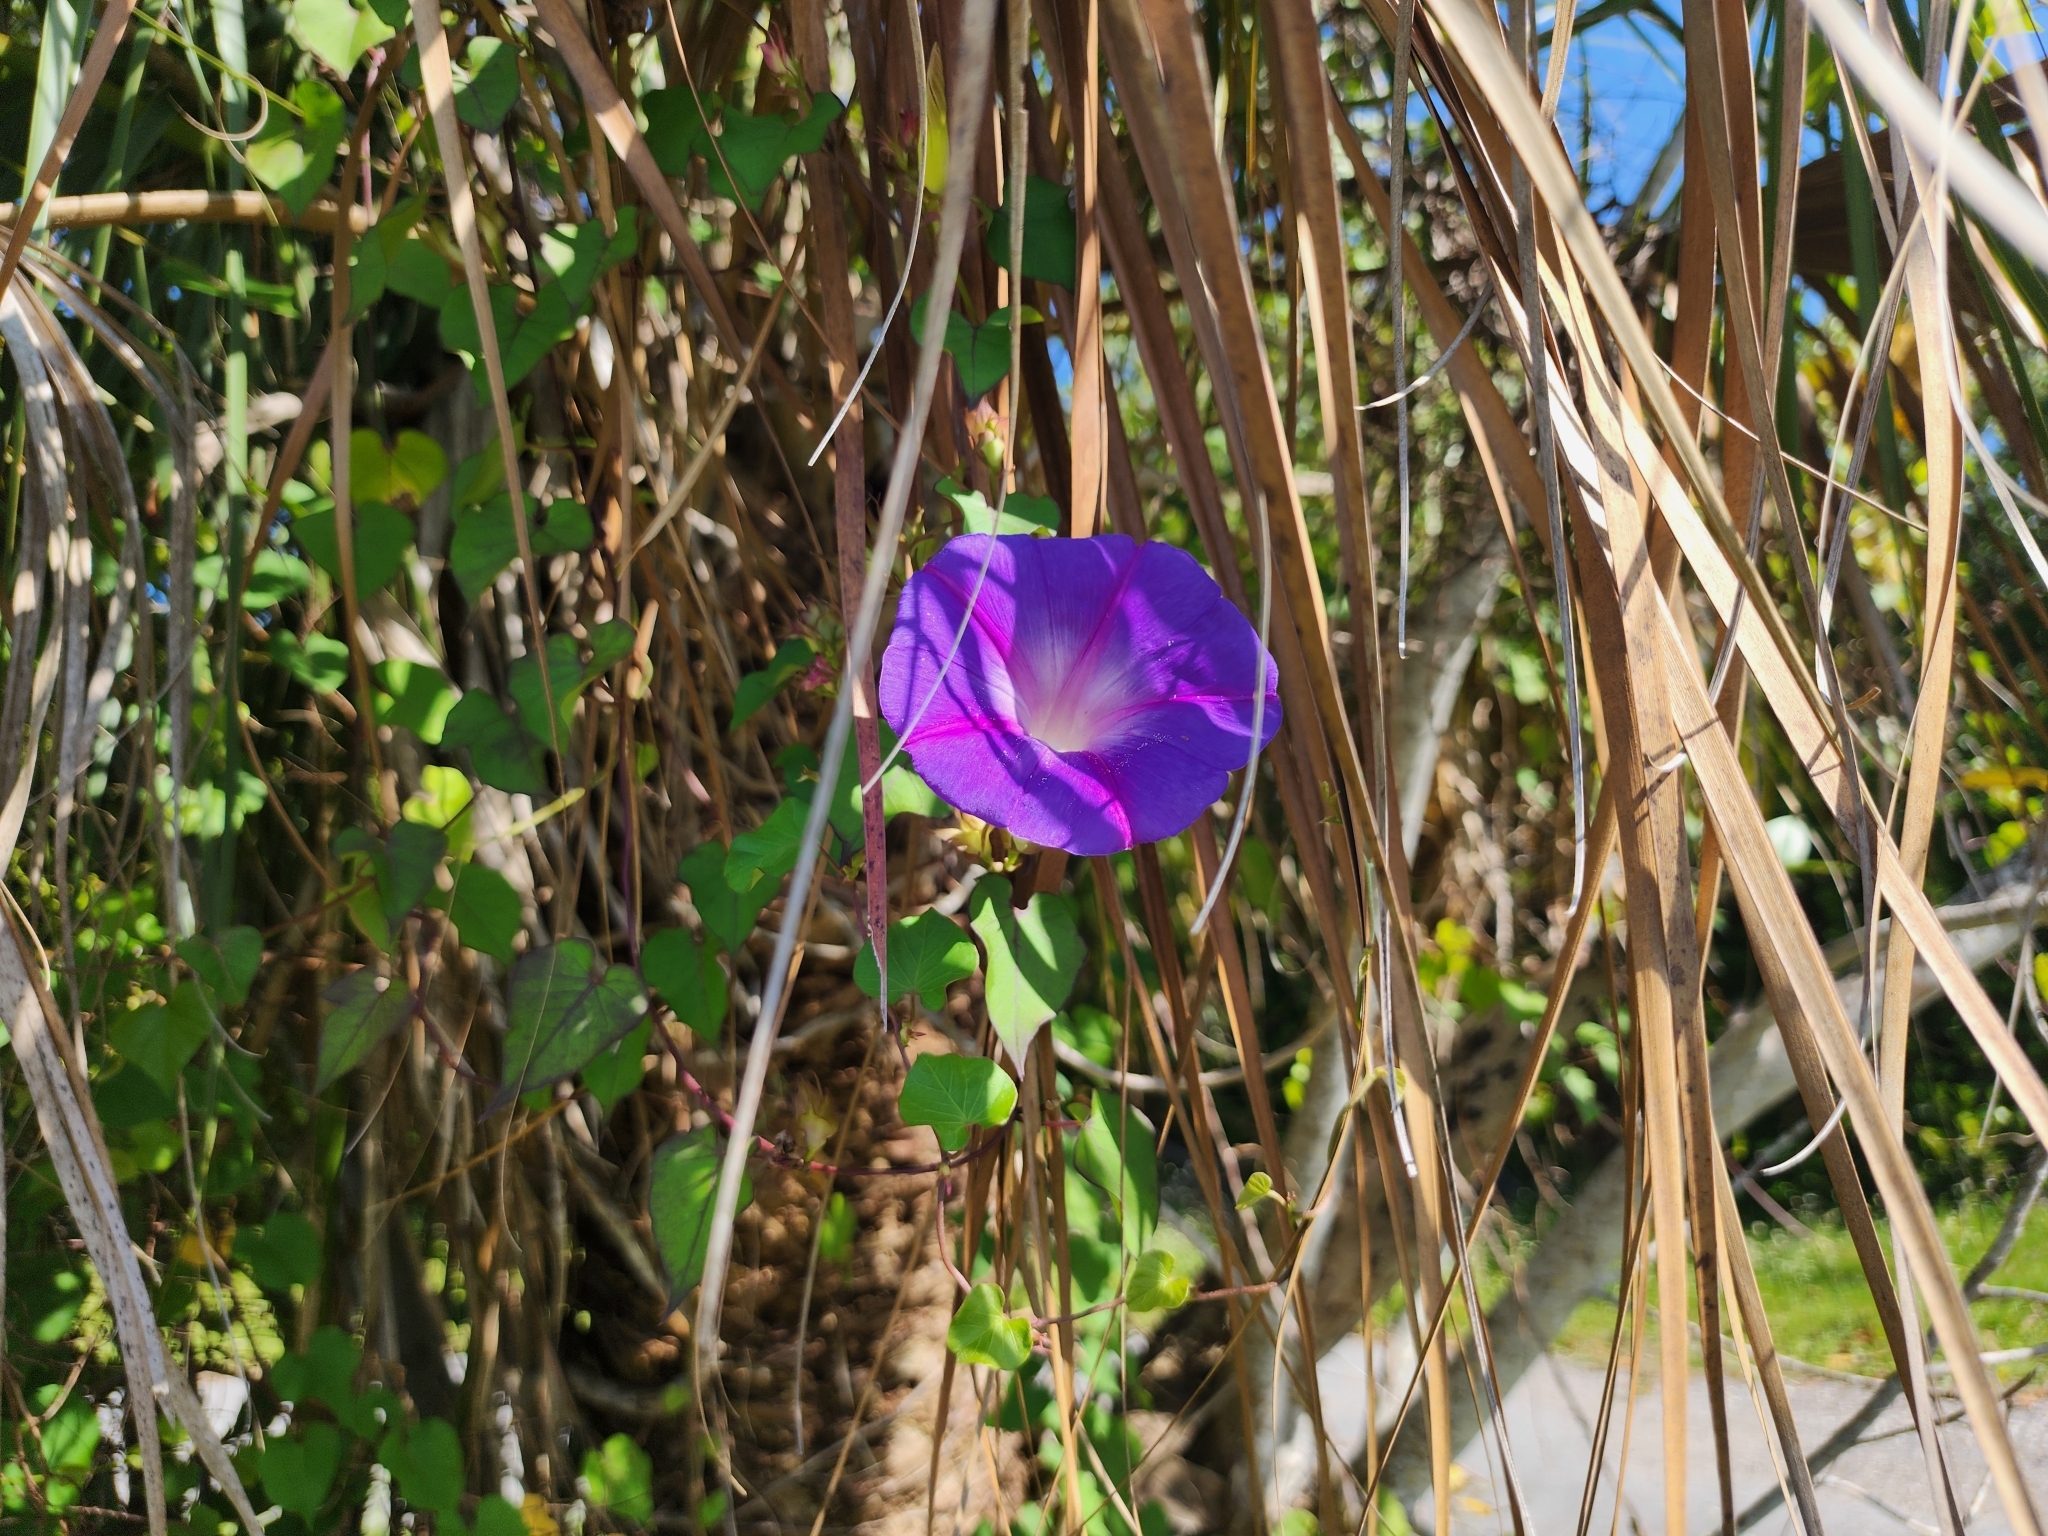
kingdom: Plantae
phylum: Tracheophyta
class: Magnoliopsida
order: Solanales
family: Convolvulaceae
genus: Ipomoea
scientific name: Ipomoea purpurea
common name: Common morning-glory
